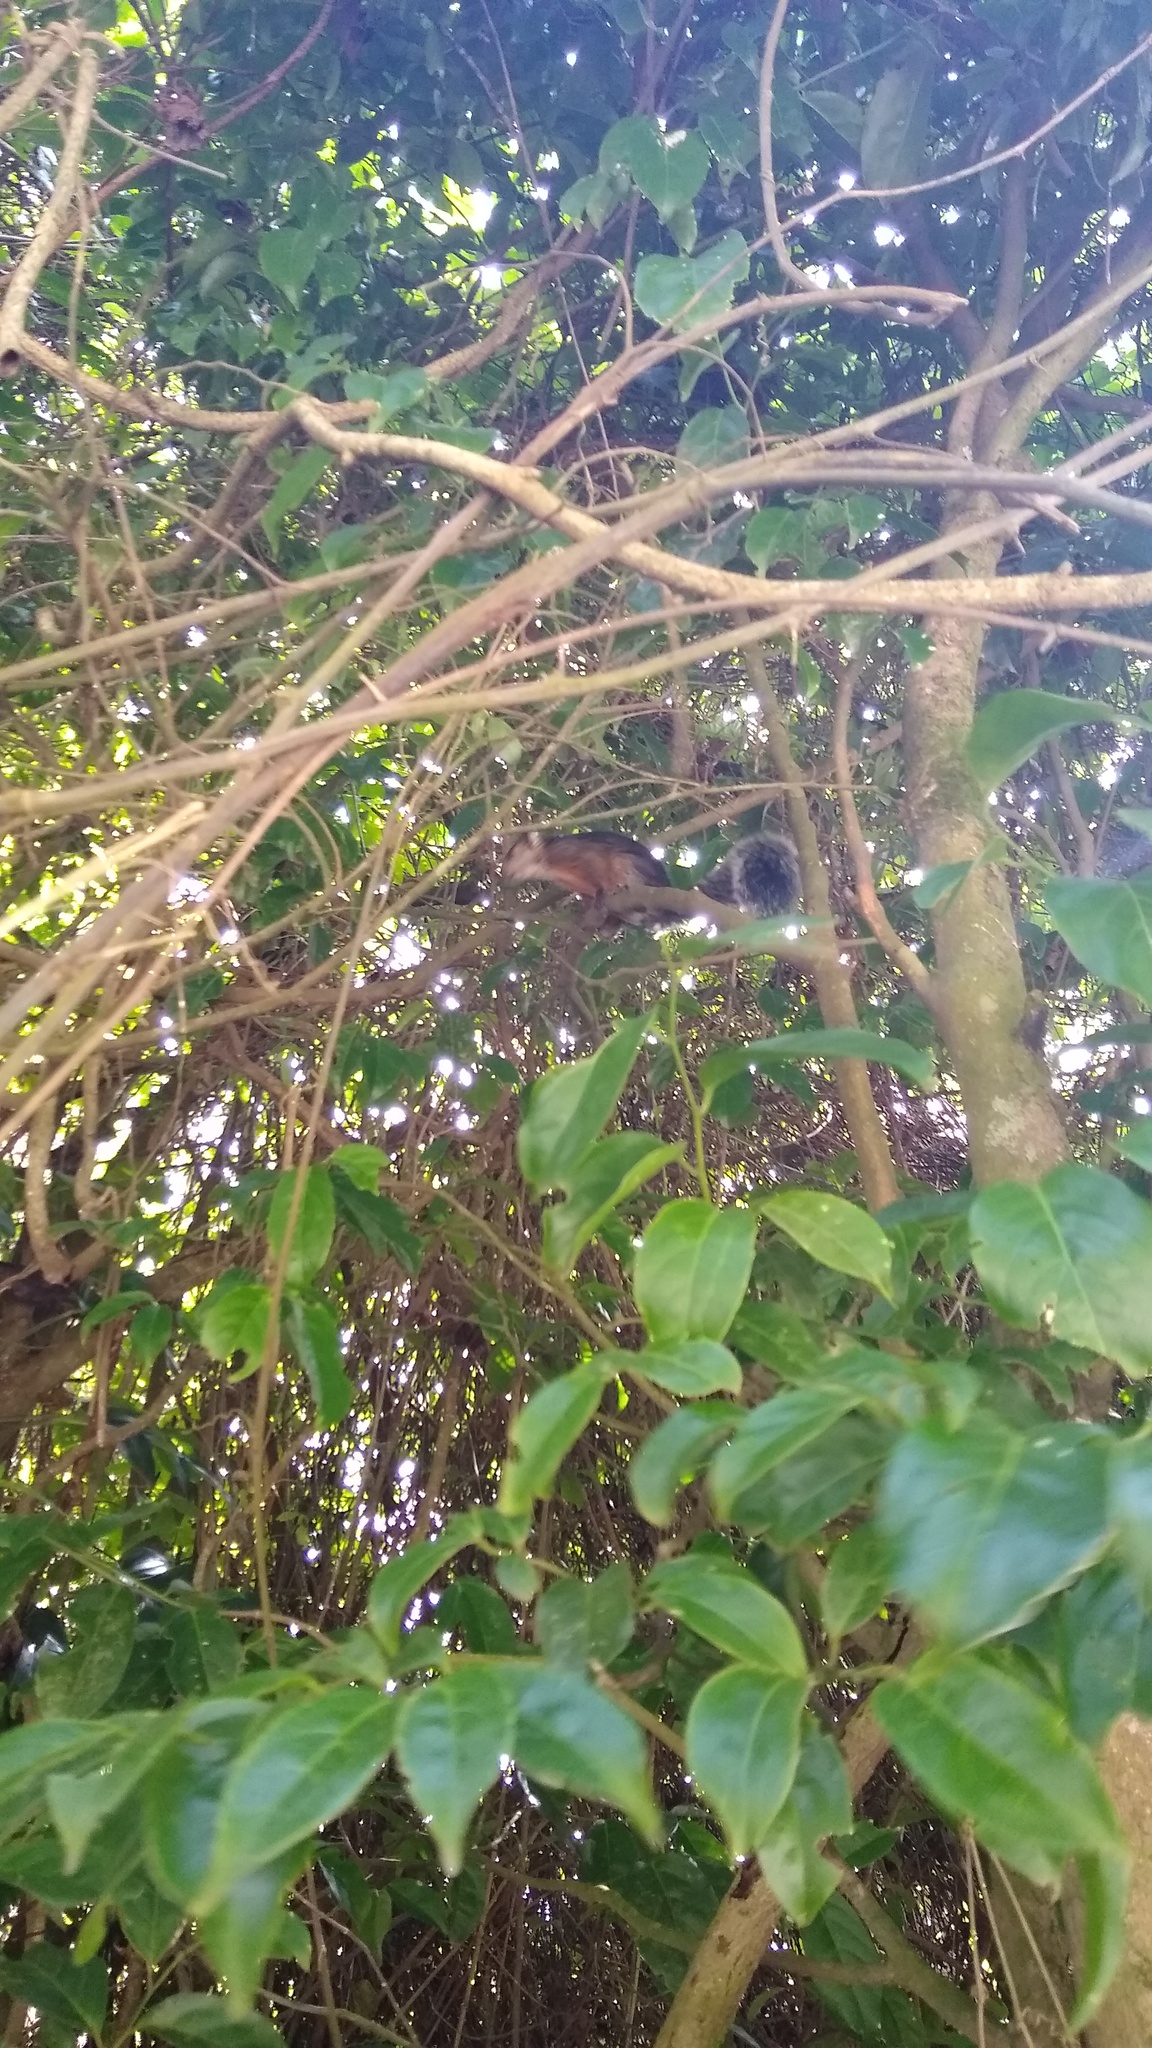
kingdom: Animalia
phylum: Chordata
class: Mammalia
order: Rodentia
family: Sciuridae
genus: Sciurus
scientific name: Sciurus variegatoides
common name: Variegated squirrel
